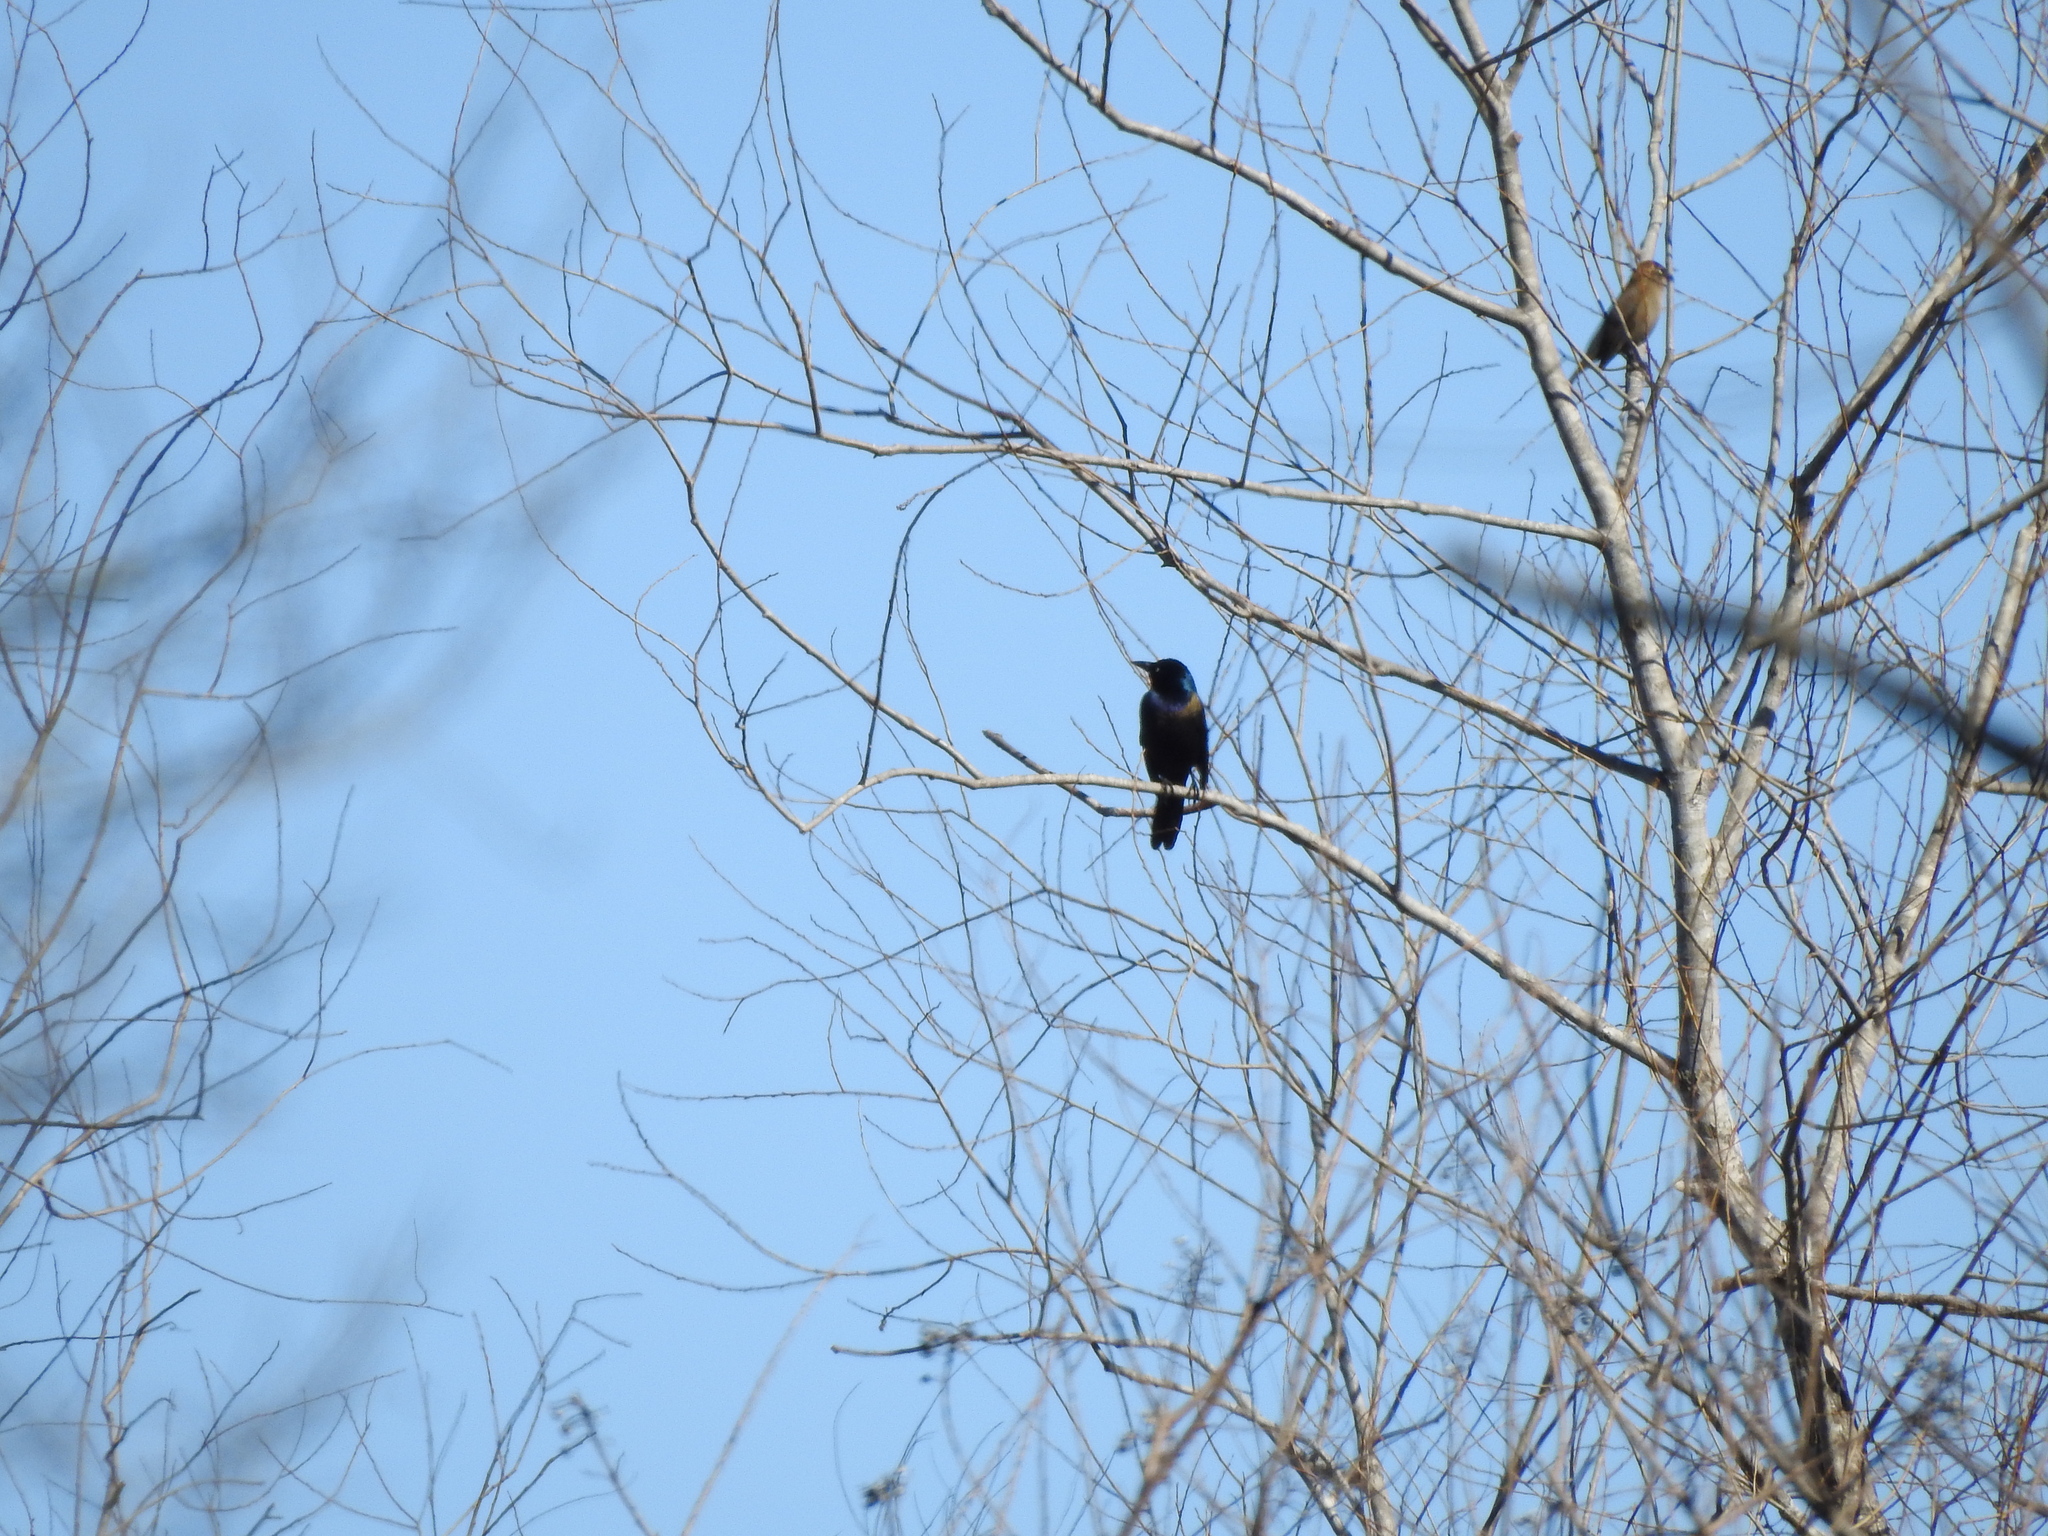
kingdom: Animalia
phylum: Chordata
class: Aves
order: Passeriformes
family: Icteridae
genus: Quiscalus
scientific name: Quiscalus quiscula
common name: Common grackle
